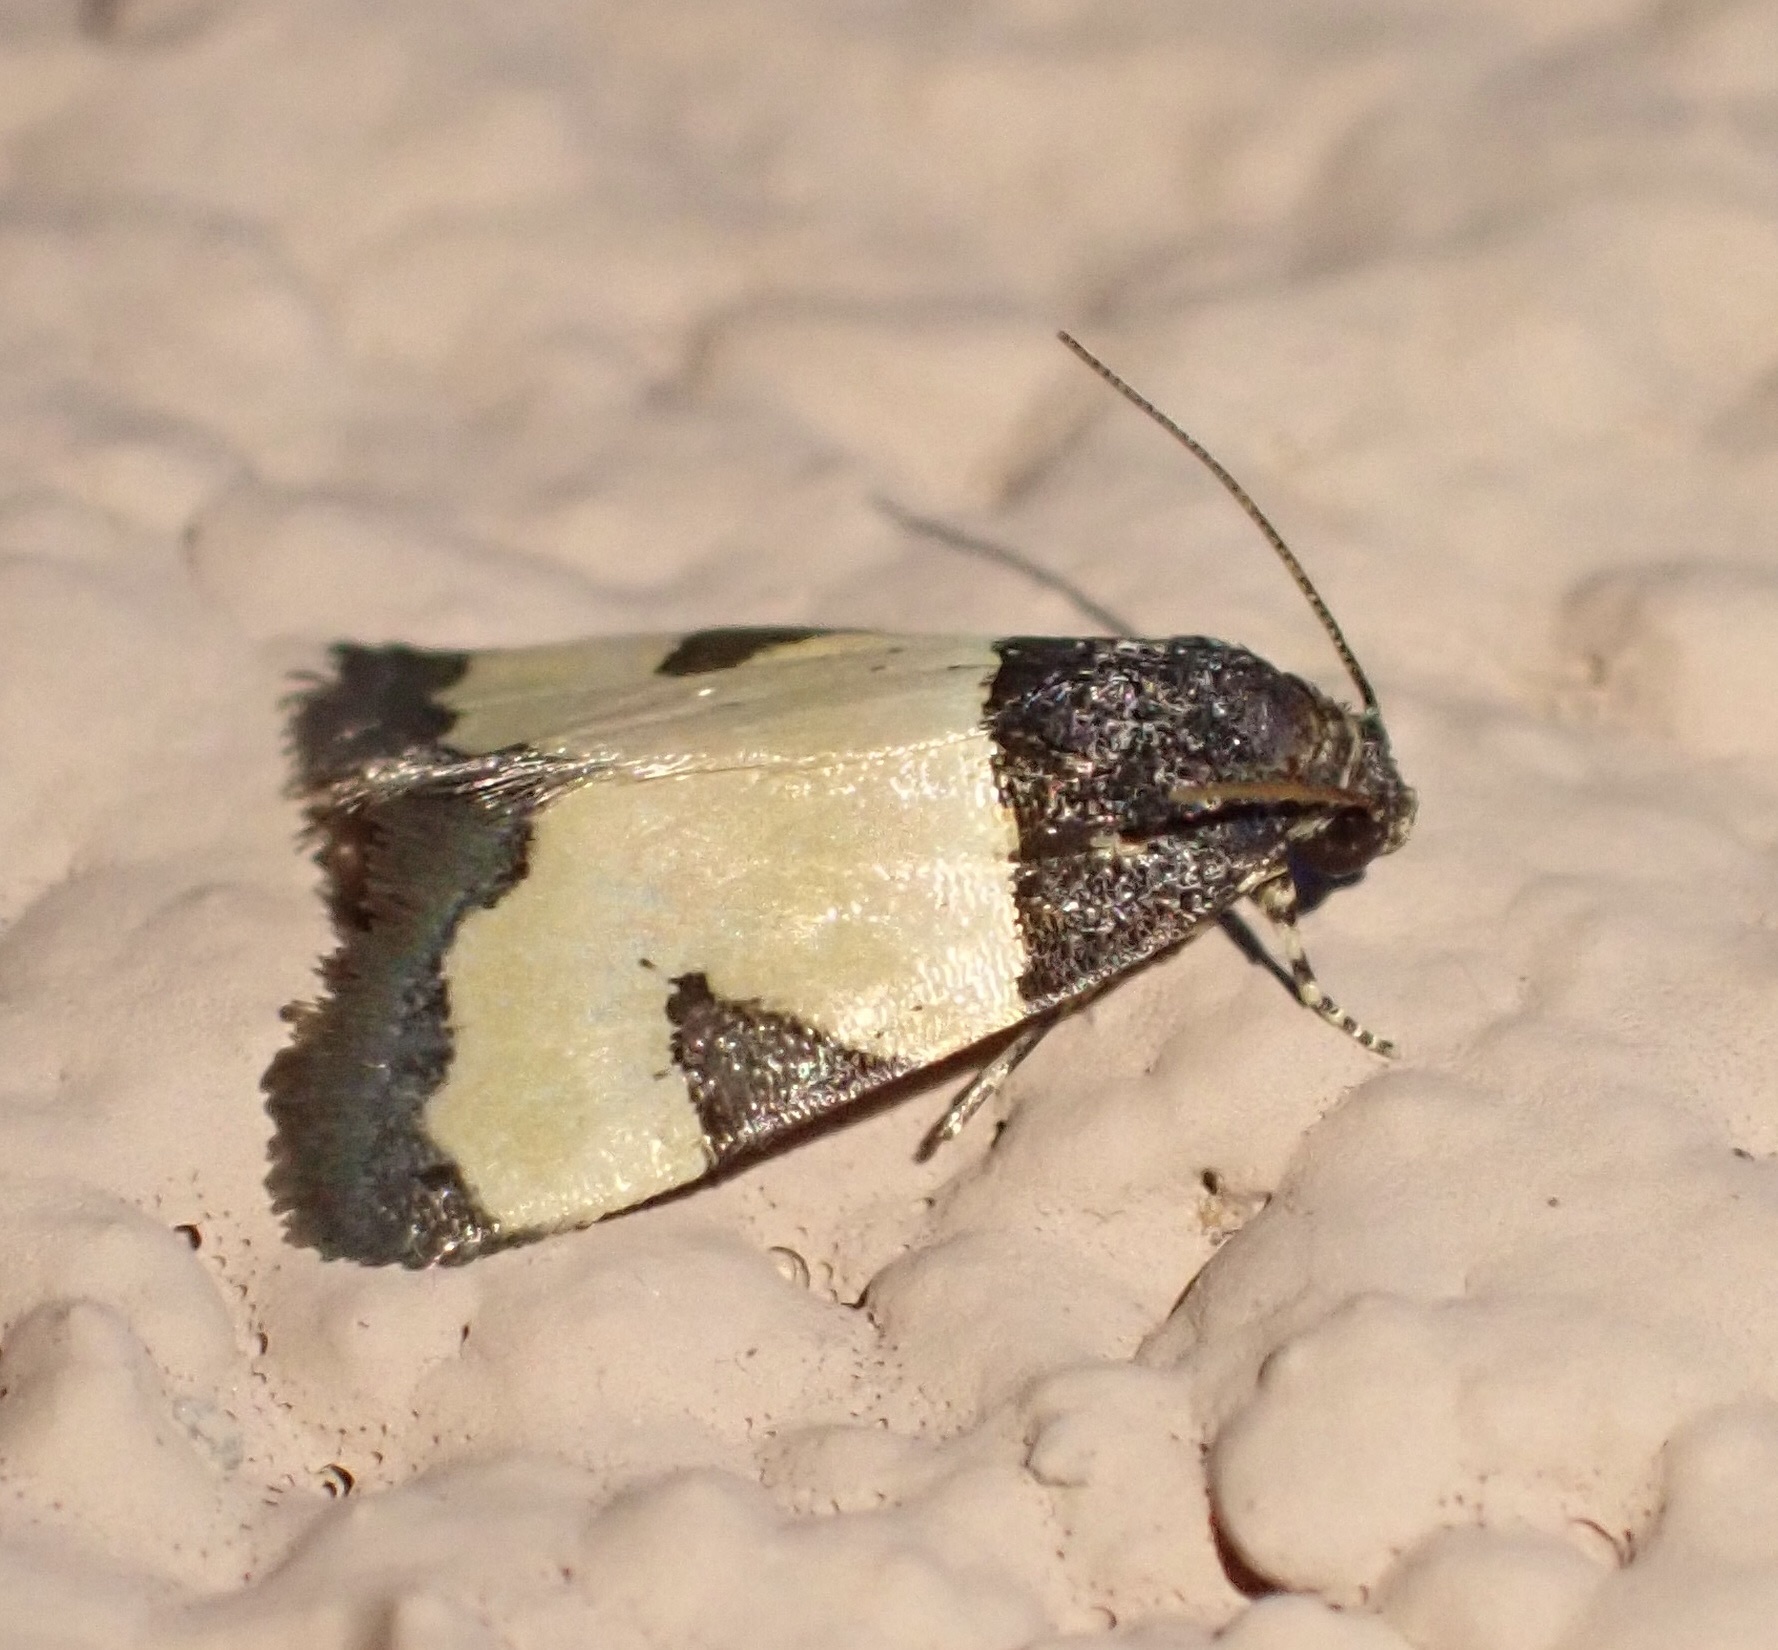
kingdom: Animalia
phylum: Arthropoda
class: Insecta
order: Lepidoptera
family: Noctuidae
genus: Thalerastria
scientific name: Thalerastria lehmanni
